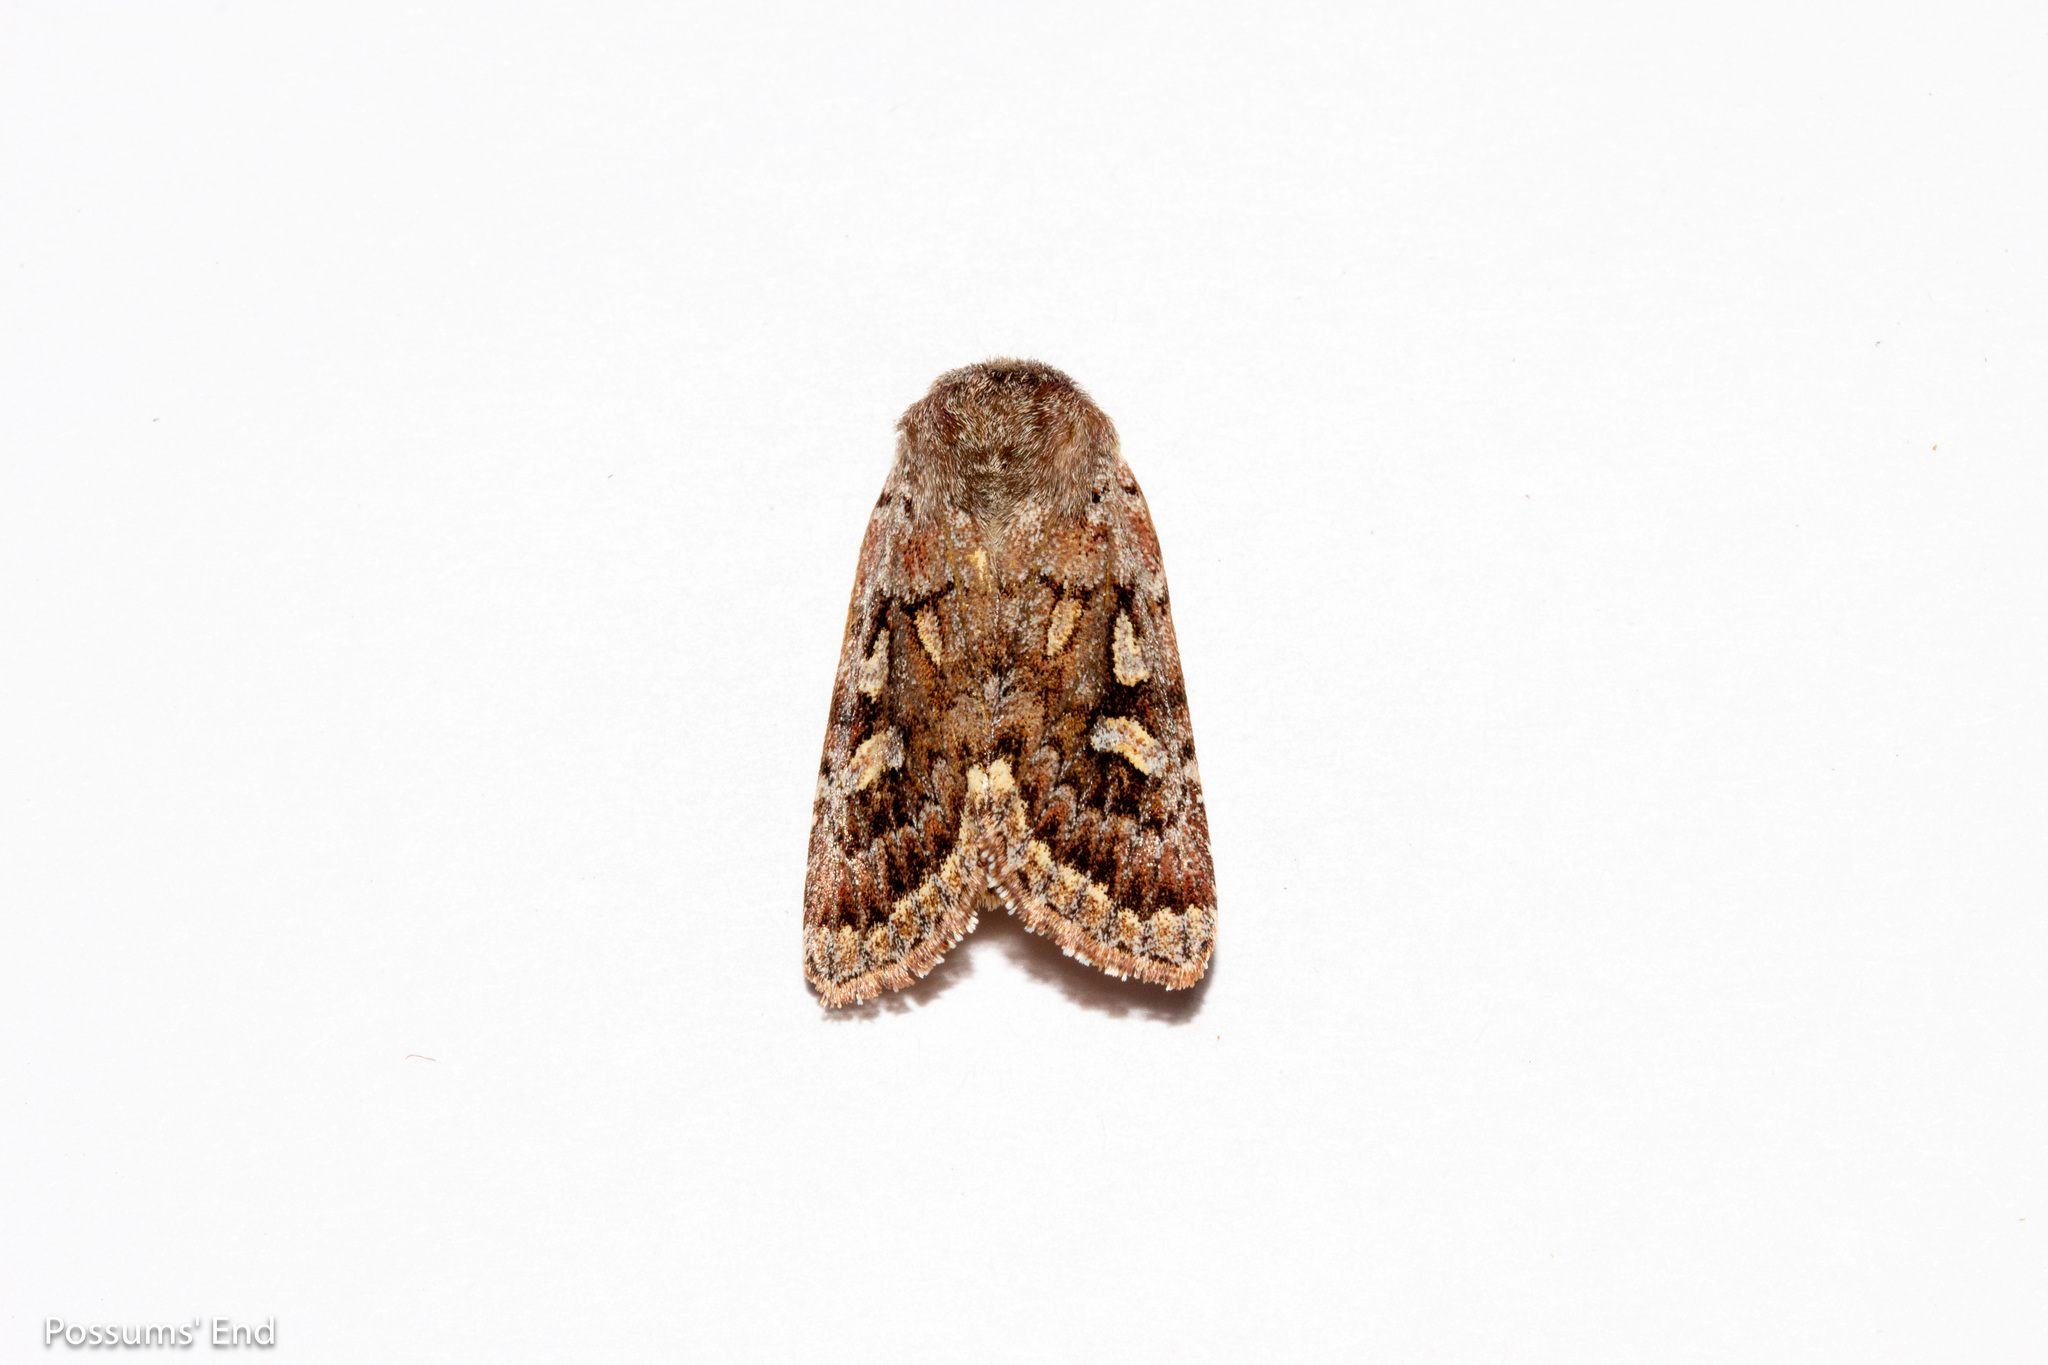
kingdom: Animalia
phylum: Arthropoda
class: Insecta
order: Lepidoptera
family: Noctuidae
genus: Ichneutica
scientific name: Ichneutica marmorata
